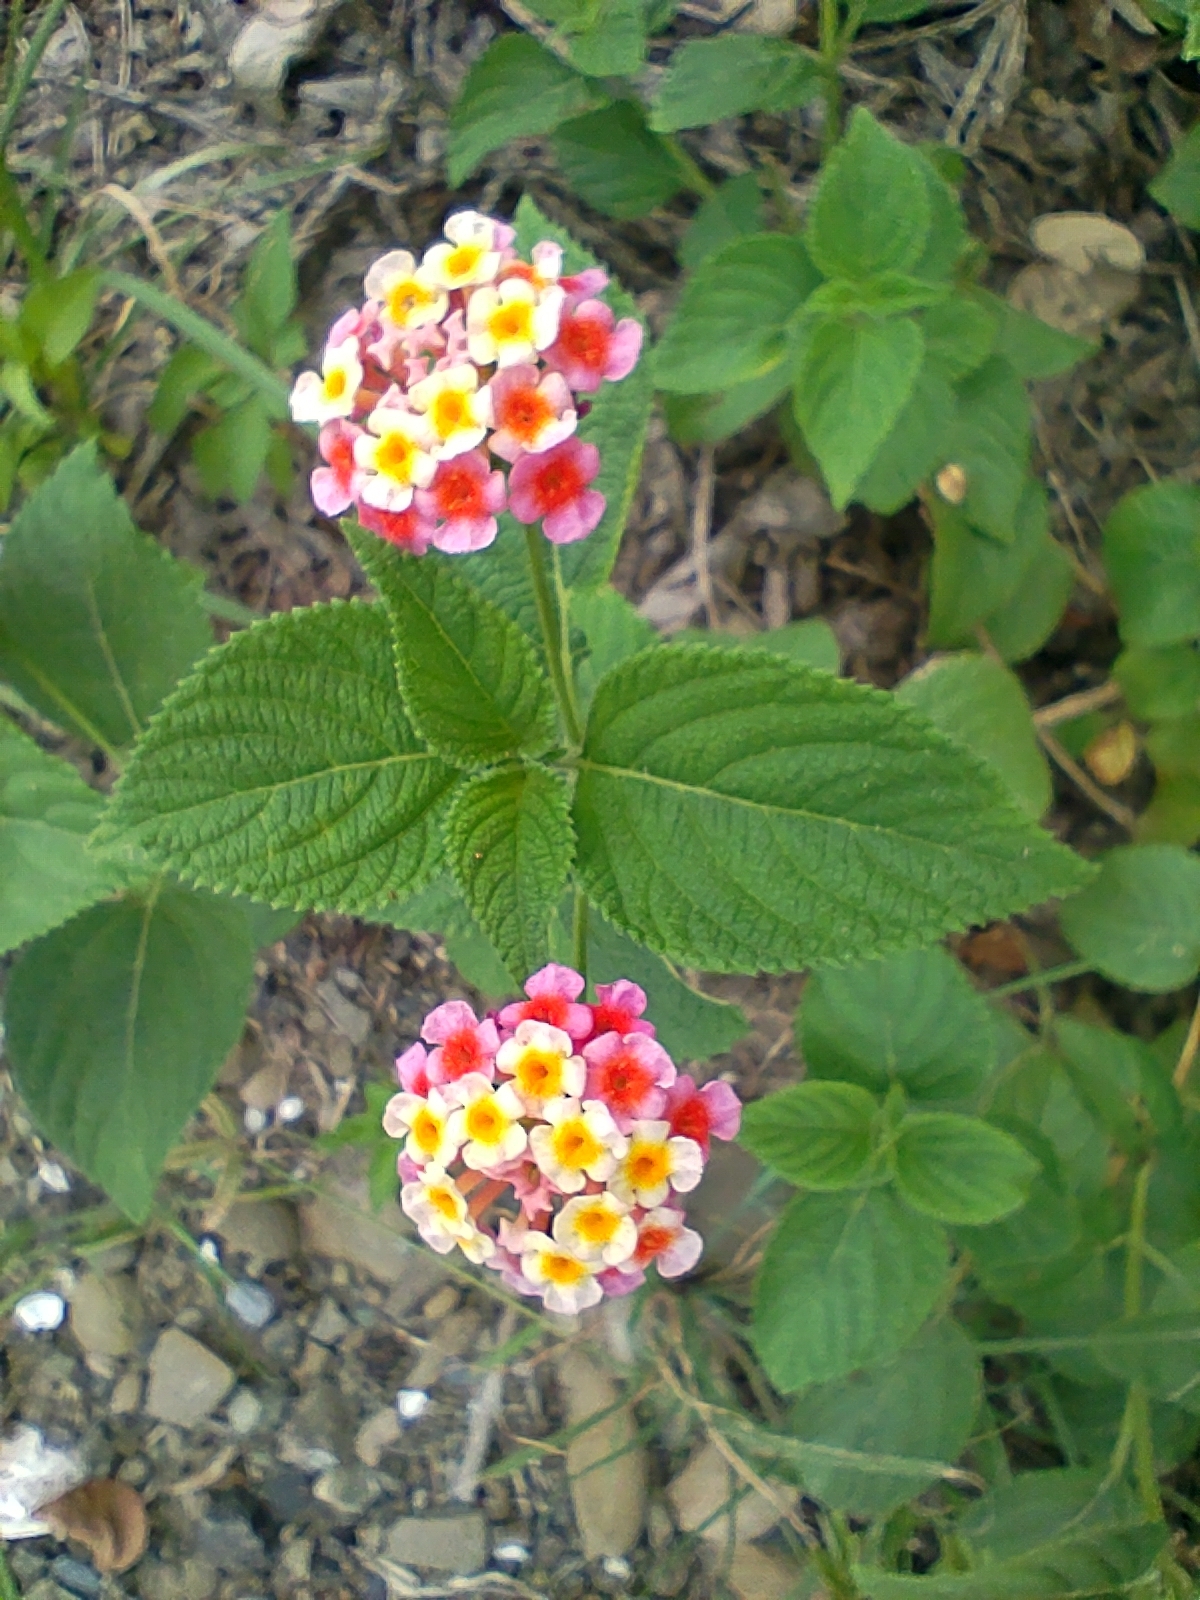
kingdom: Plantae
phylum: Tracheophyta
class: Magnoliopsida
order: Lamiales
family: Verbenaceae
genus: Lantana
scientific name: Lantana camara
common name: Lantana
